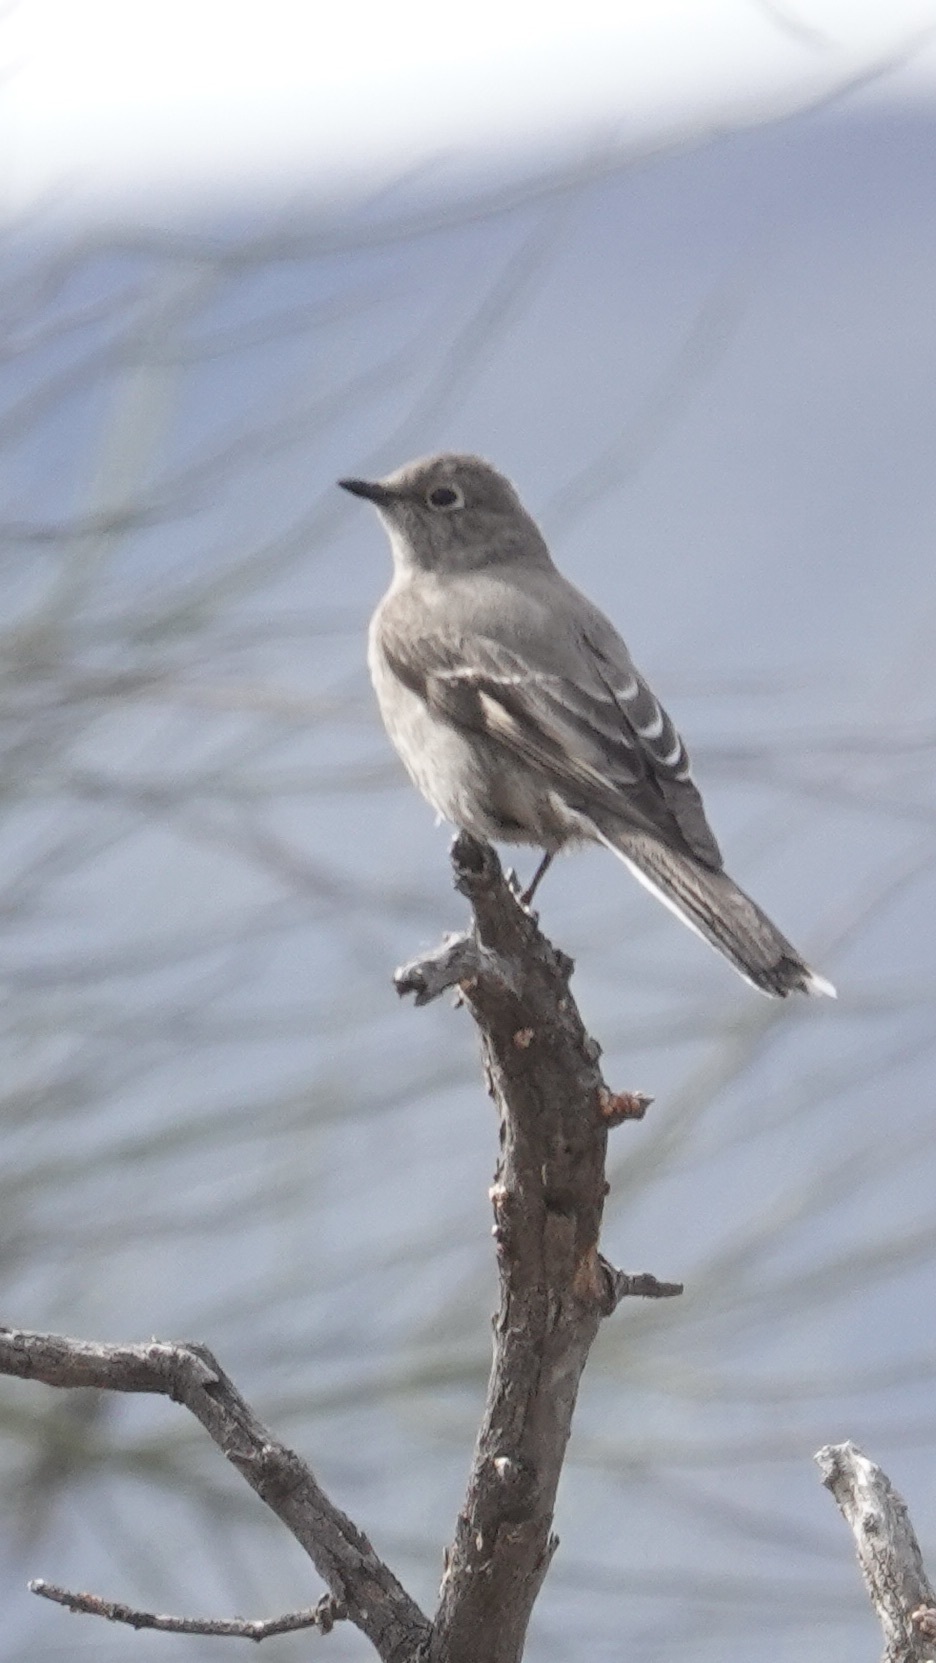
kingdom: Animalia
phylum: Chordata
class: Aves
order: Passeriformes
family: Turdidae
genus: Myadestes
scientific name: Myadestes townsendi
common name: Townsend's solitaire
